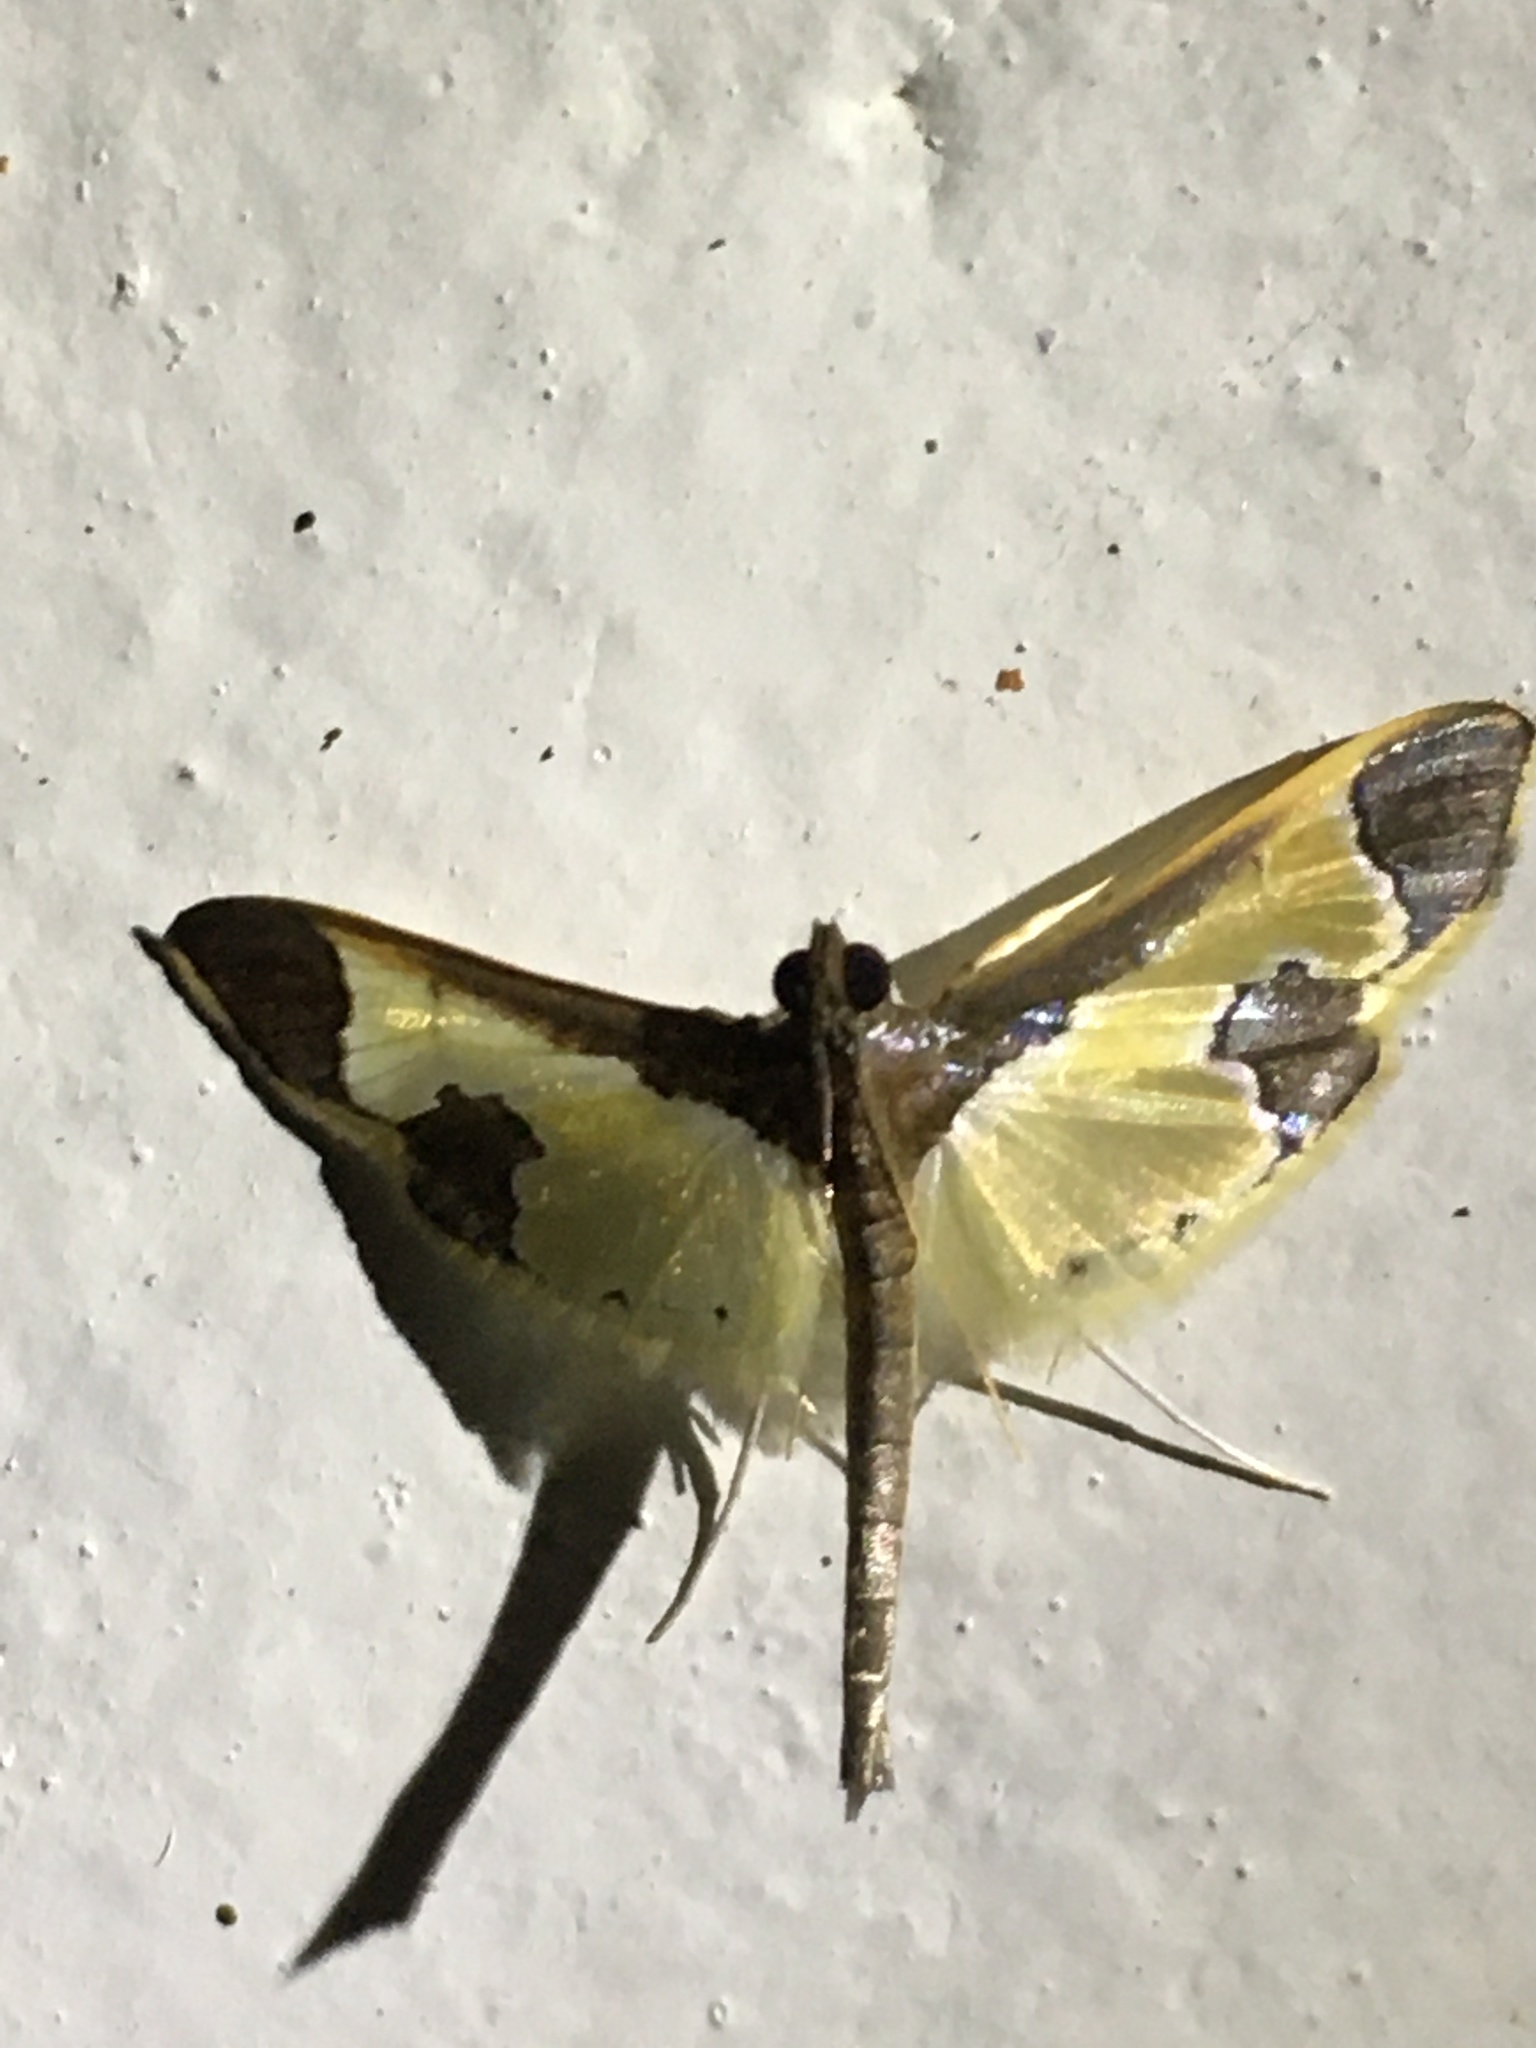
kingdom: Animalia
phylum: Arthropoda
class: Insecta
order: Lepidoptera
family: Crambidae
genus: Syllepis
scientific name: Syllepis marialis
